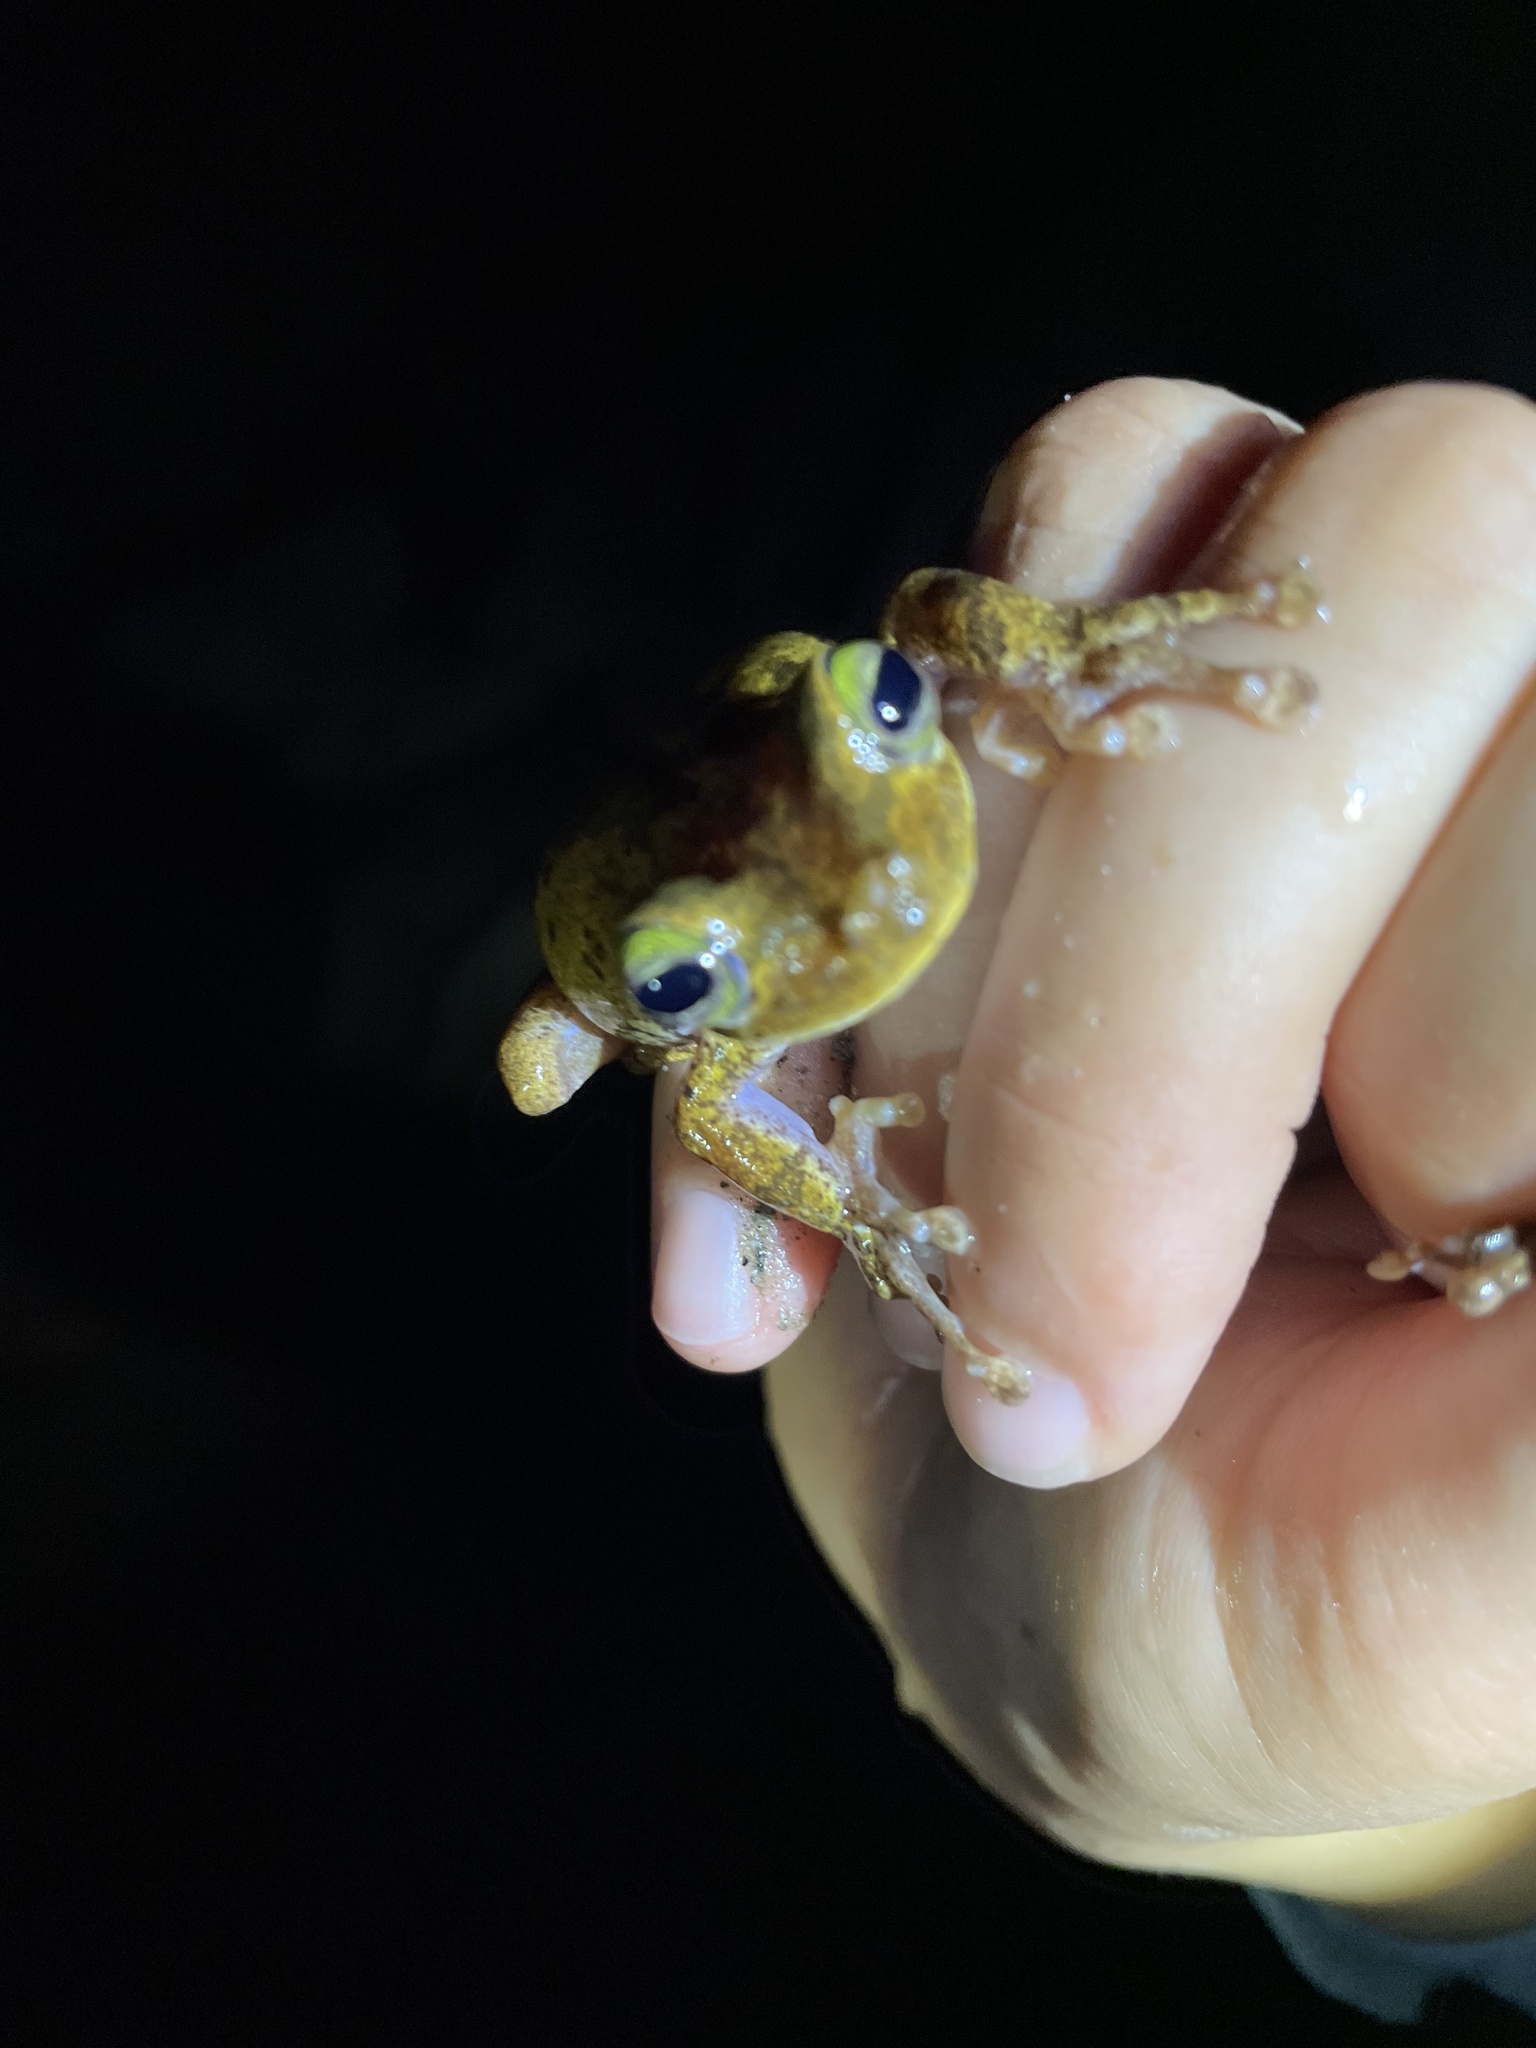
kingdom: Animalia
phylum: Chordata
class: Amphibia
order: Anura
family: Hylidae
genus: Boana
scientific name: Boana platanera
